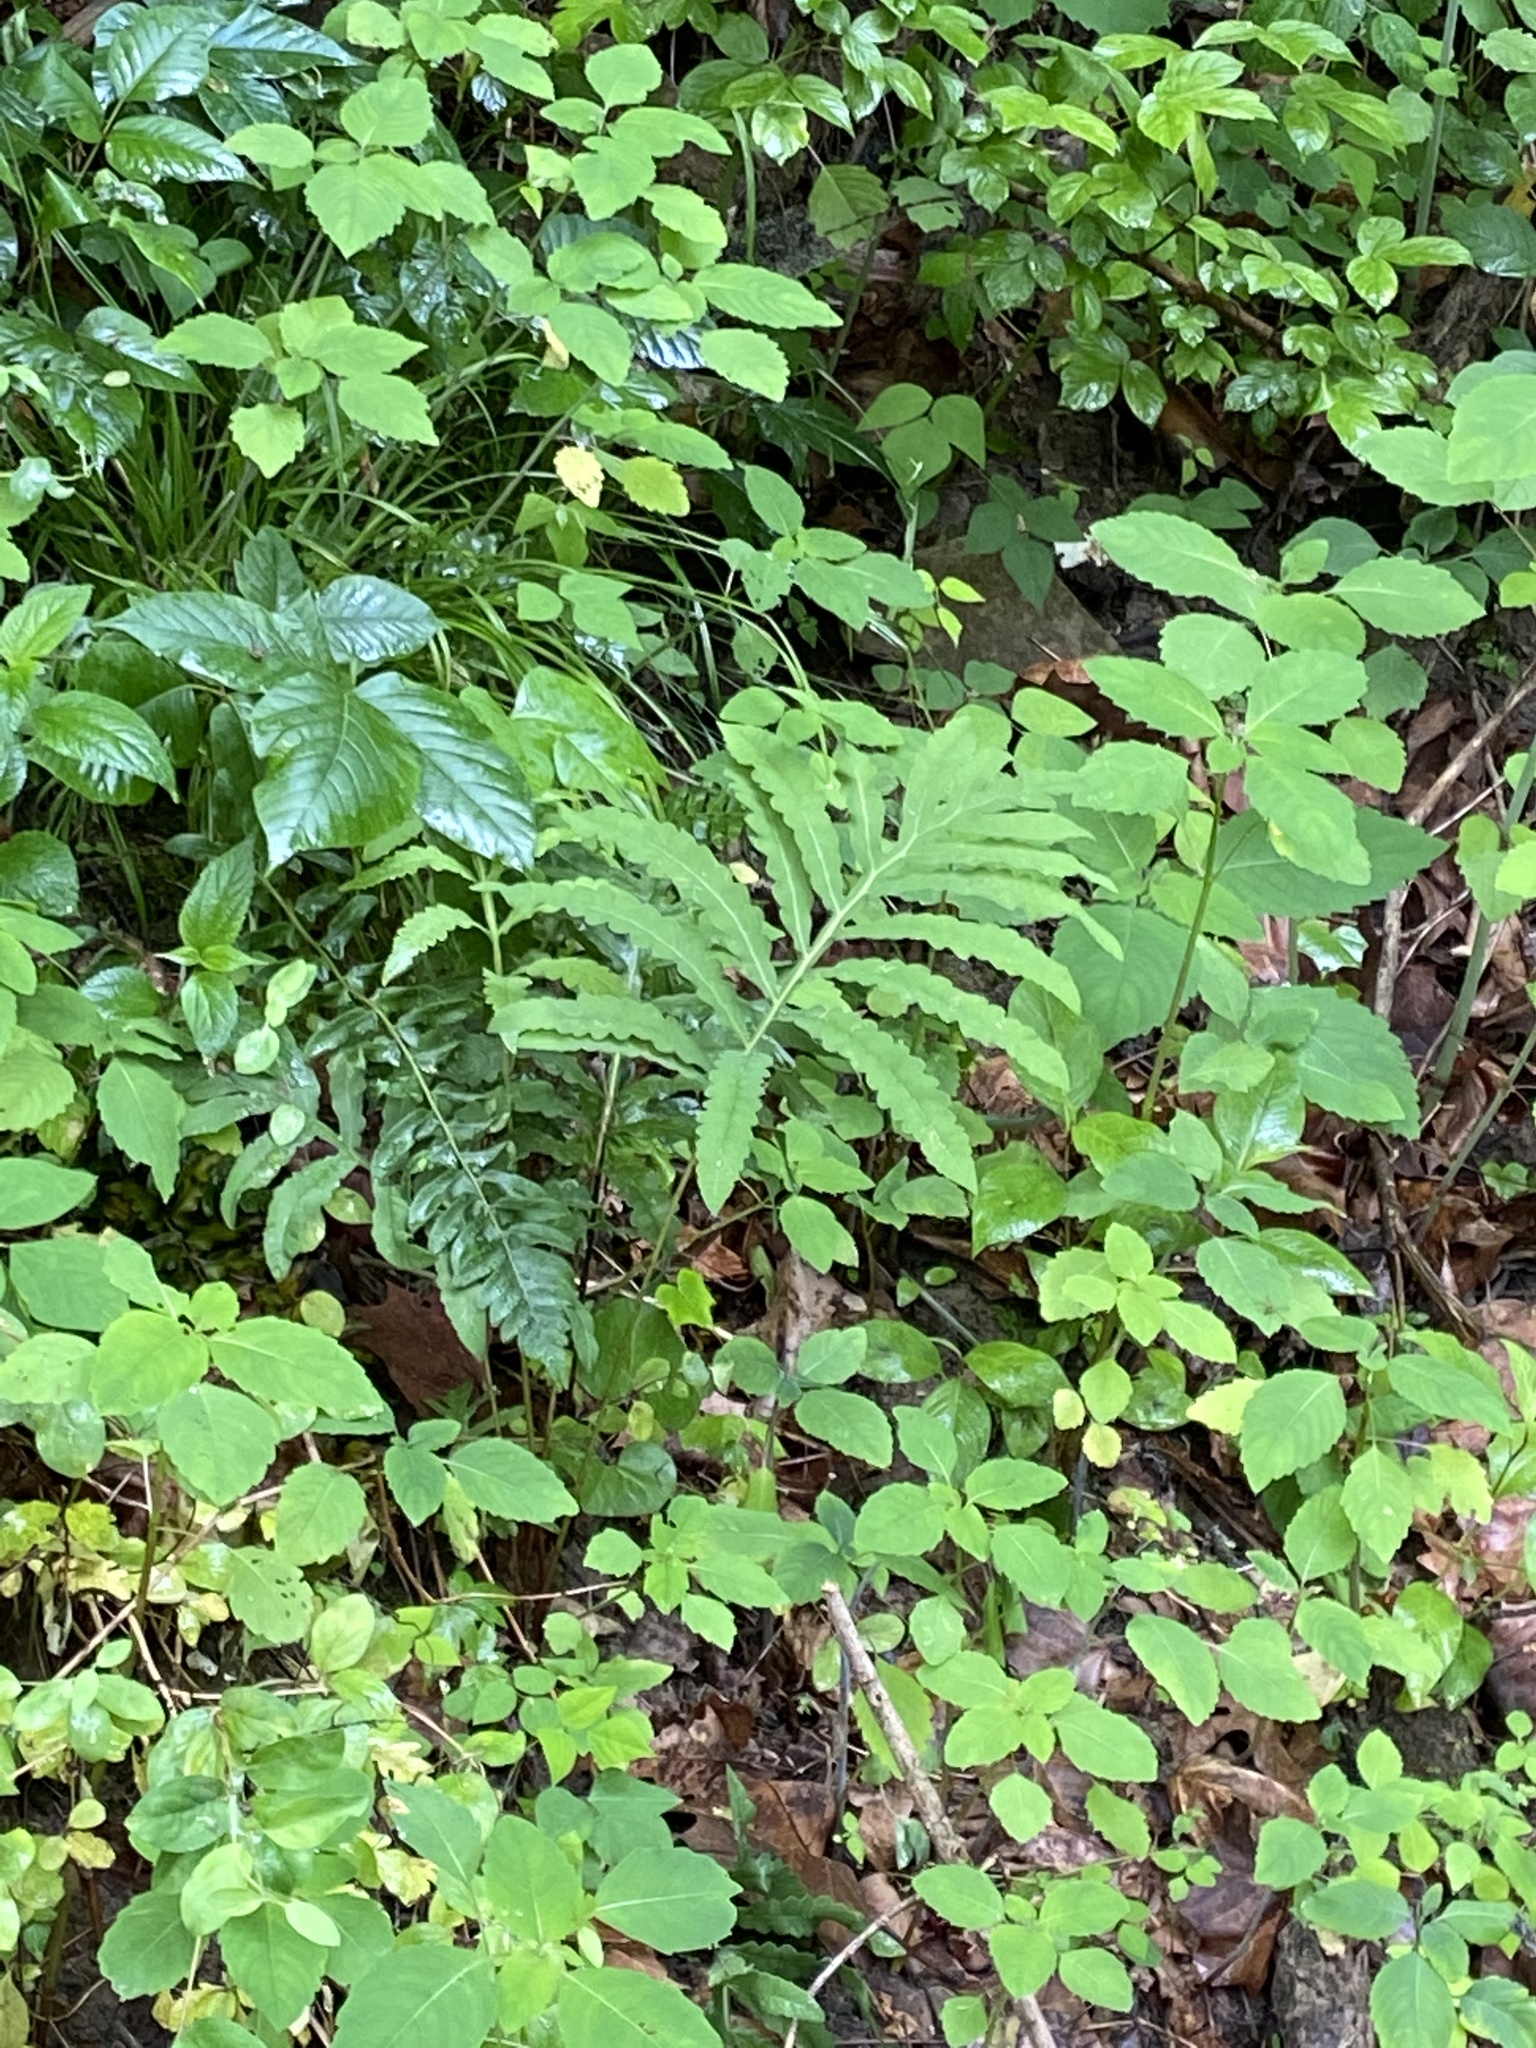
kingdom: Plantae
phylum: Tracheophyta
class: Polypodiopsida
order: Polypodiales
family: Onocleaceae
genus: Onoclea
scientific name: Onoclea sensibilis
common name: Sensitive fern
